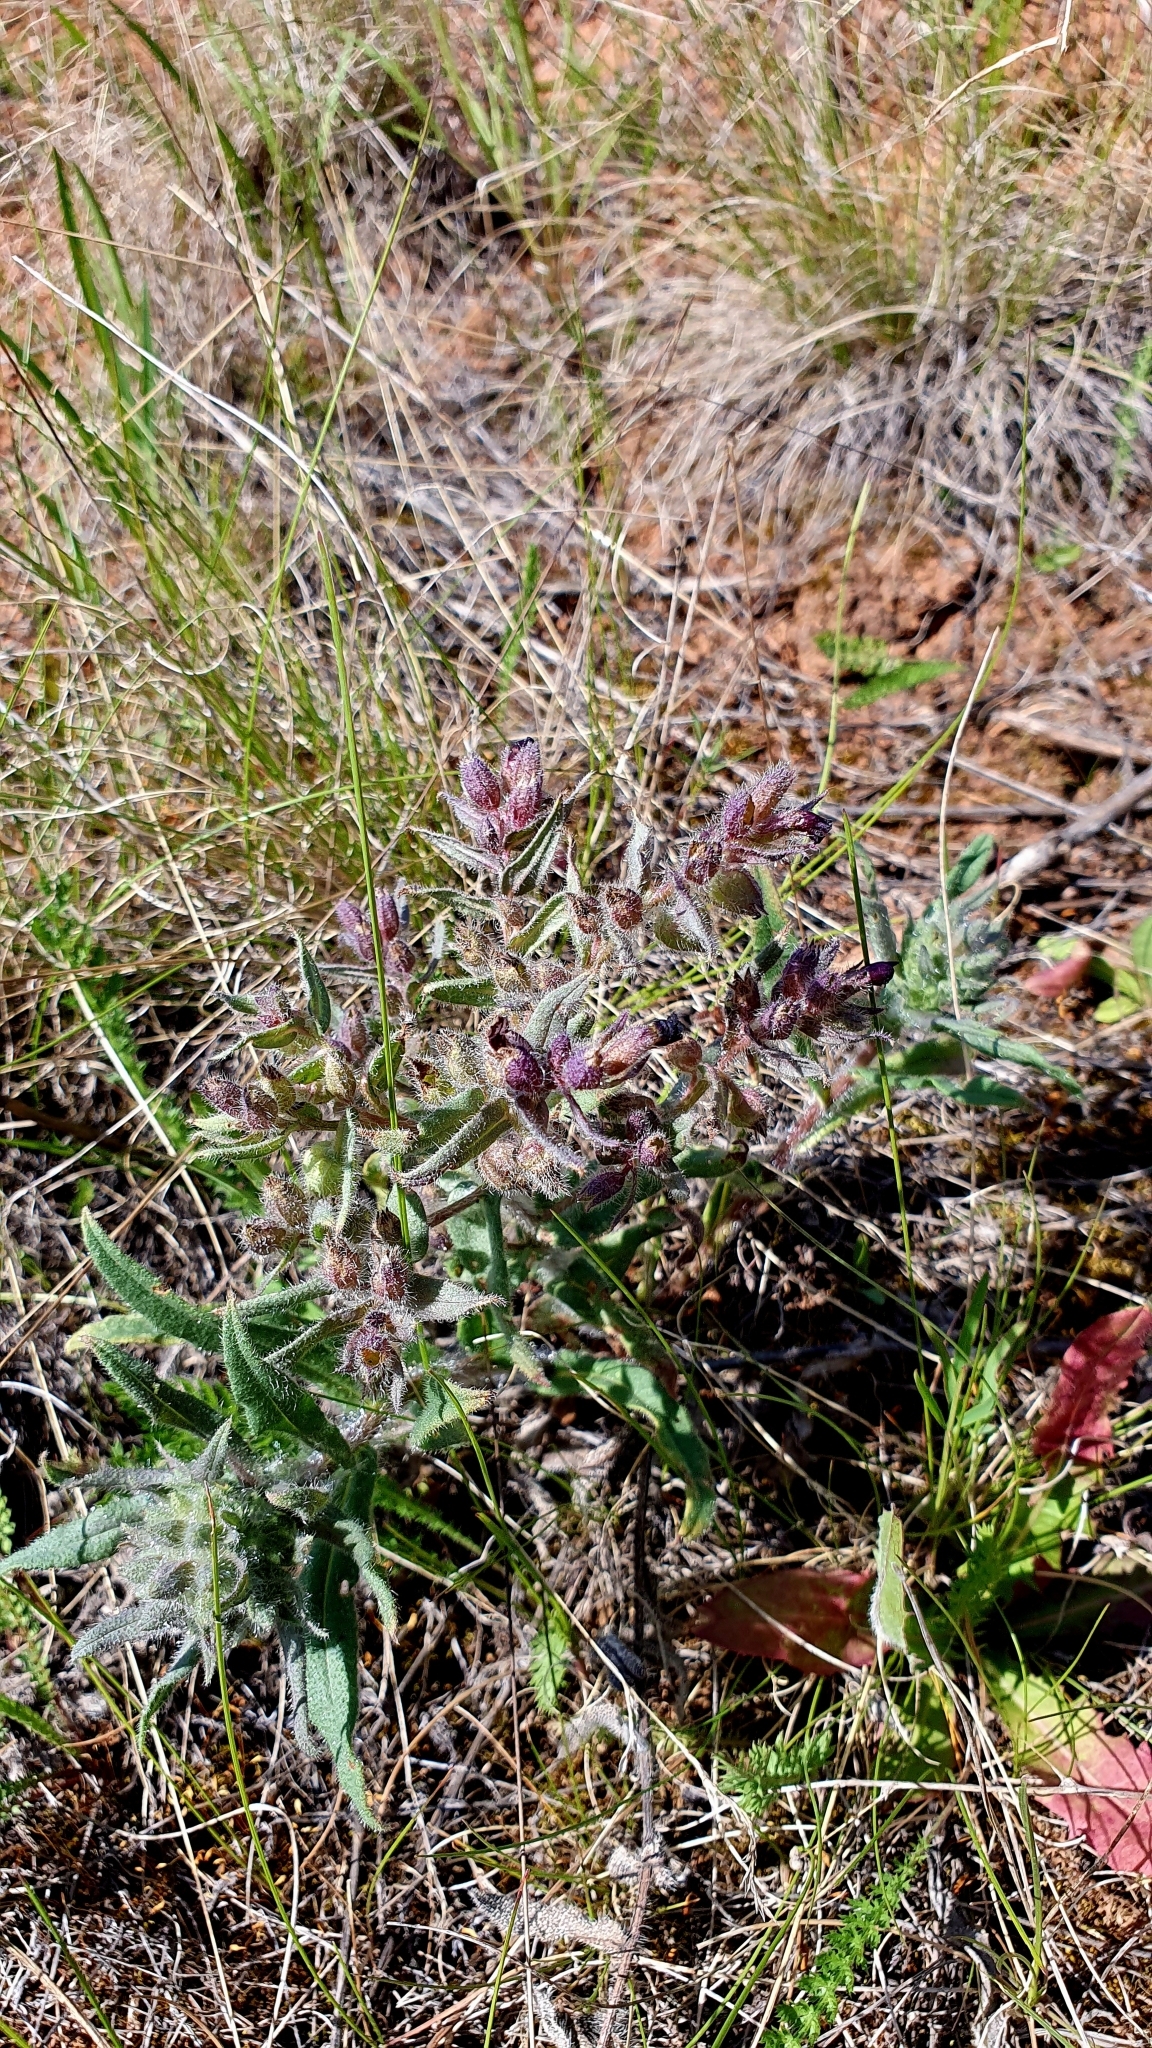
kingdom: Plantae
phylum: Tracheophyta
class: Magnoliopsida
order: Boraginales
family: Boraginaceae
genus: Nonea
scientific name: Nonea pulla
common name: Brown nonea
